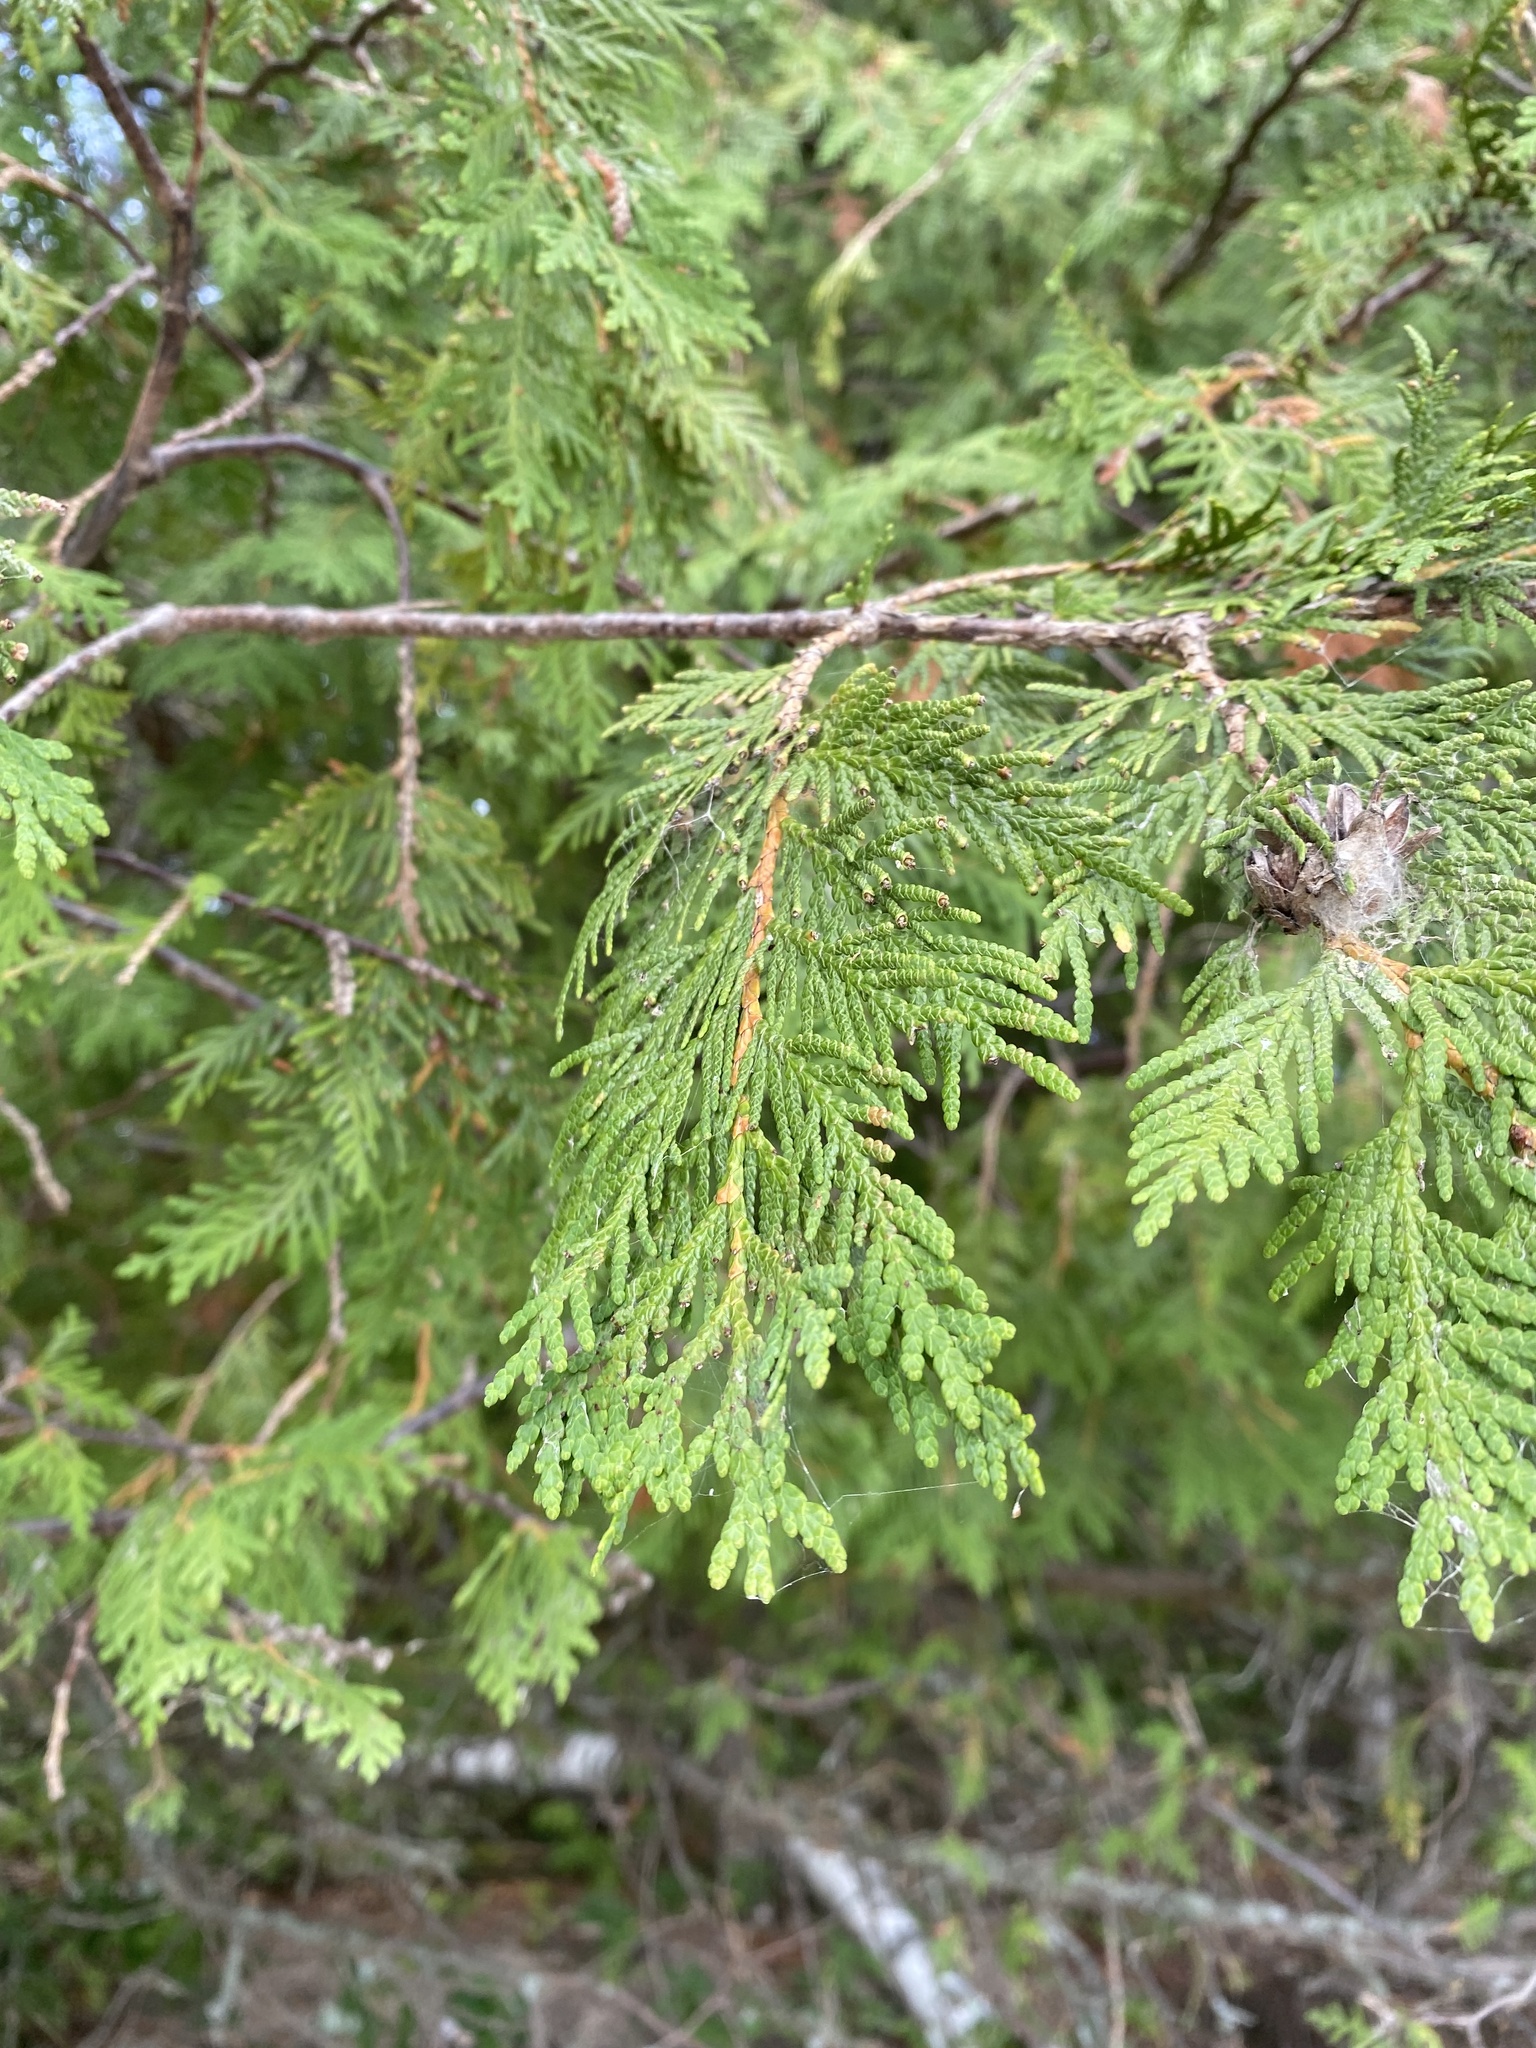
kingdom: Plantae
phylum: Tracheophyta
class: Pinopsida
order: Pinales
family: Cupressaceae
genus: Thuja
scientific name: Thuja occidentalis
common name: Northern white-cedar
